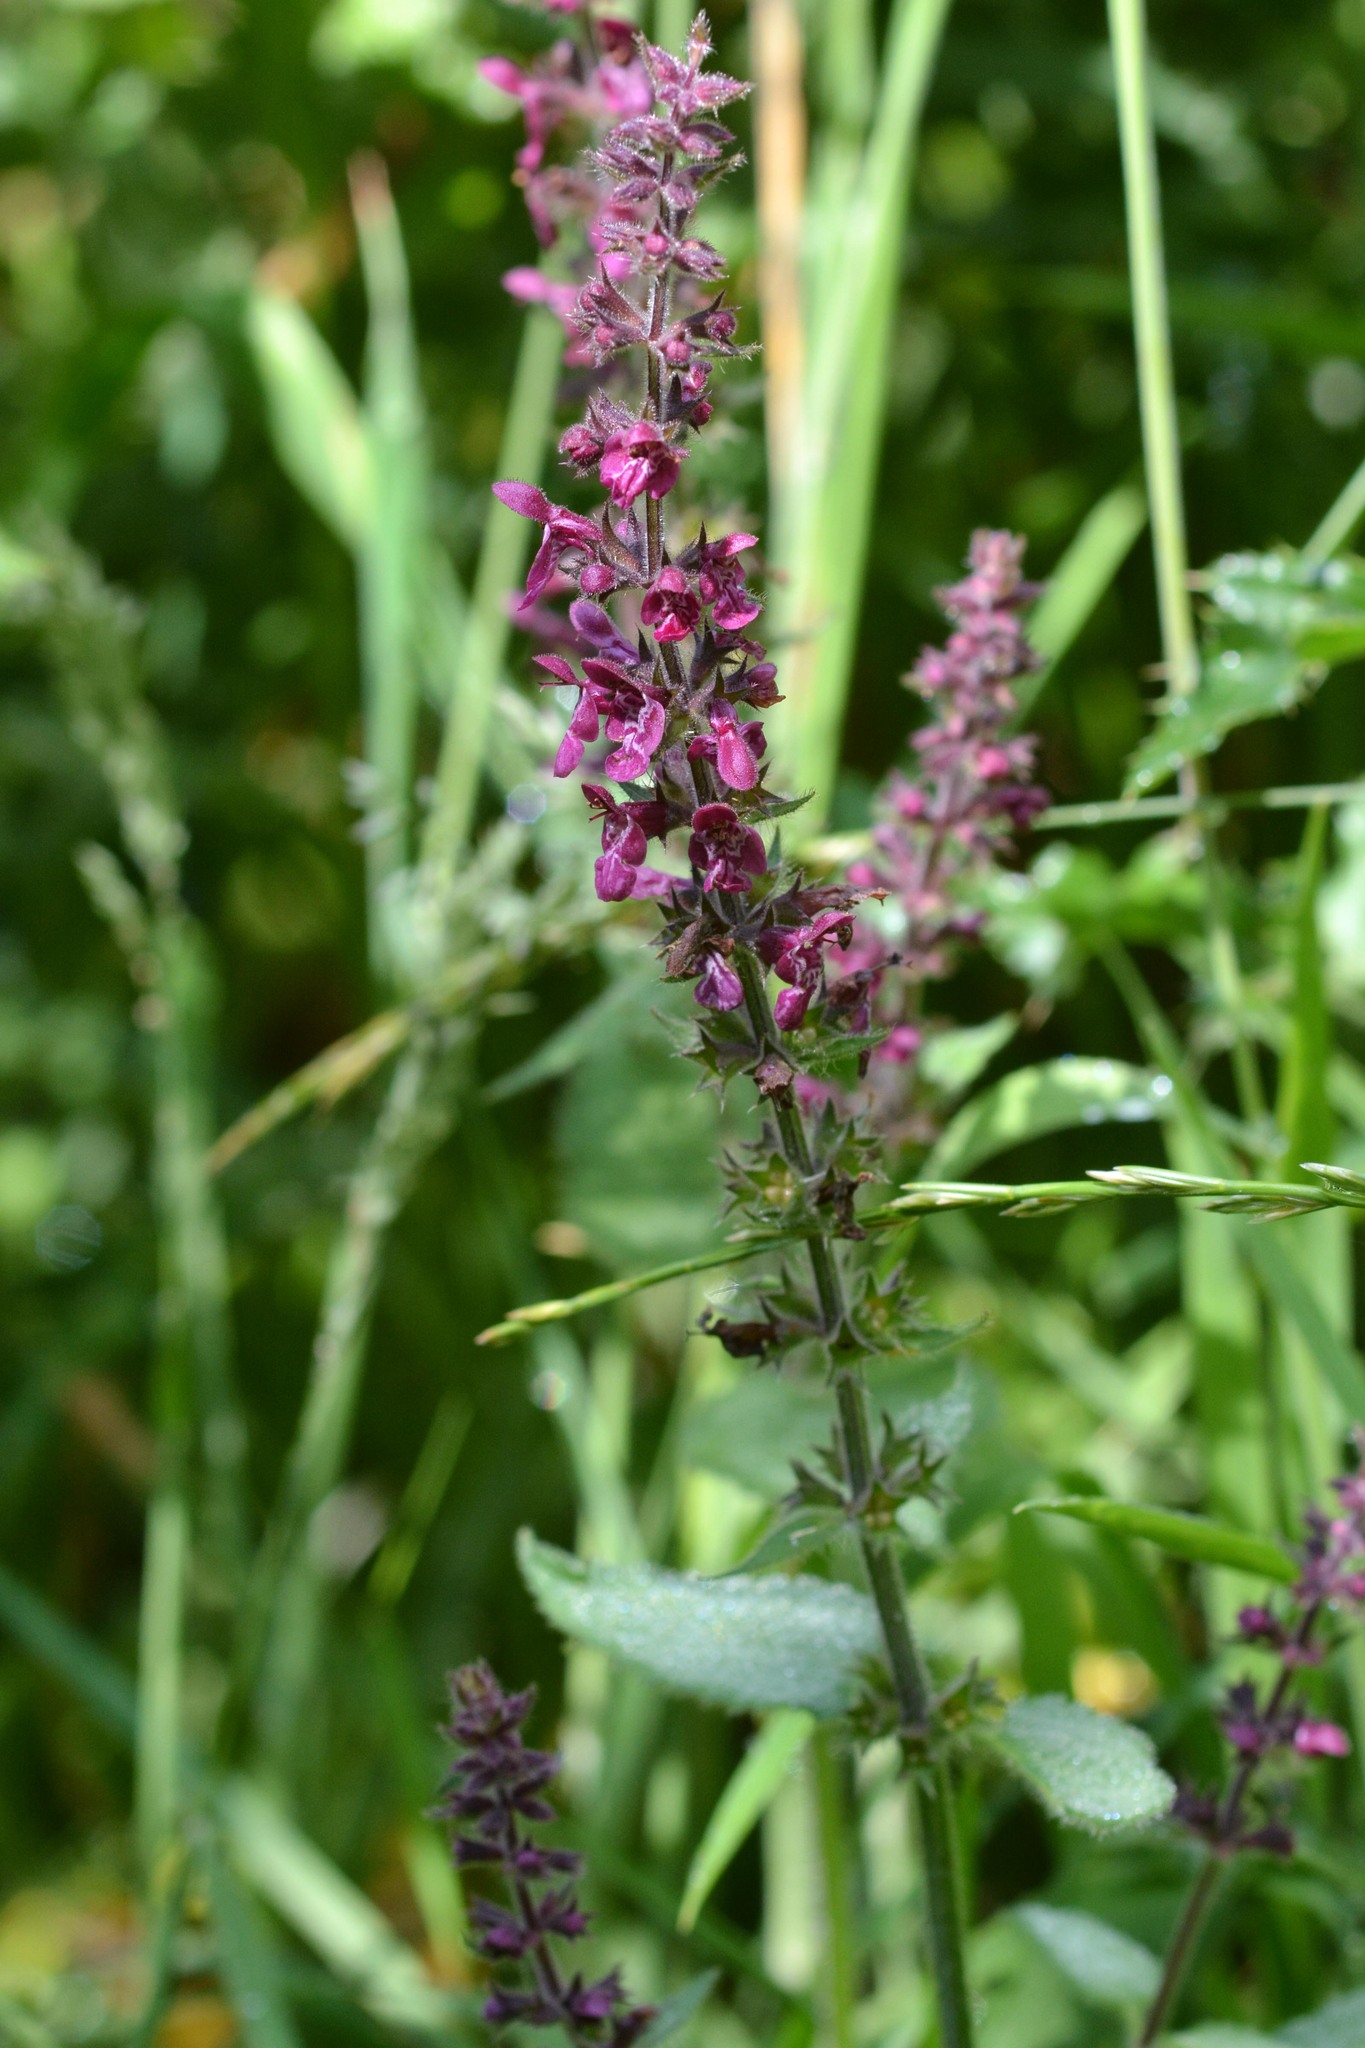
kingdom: Plantae
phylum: Tracheophyta
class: Magnoliopsida
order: Lamiales
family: Lamiaceae
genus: Stachys
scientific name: Stachys sylvatica
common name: Hedge woundwort
